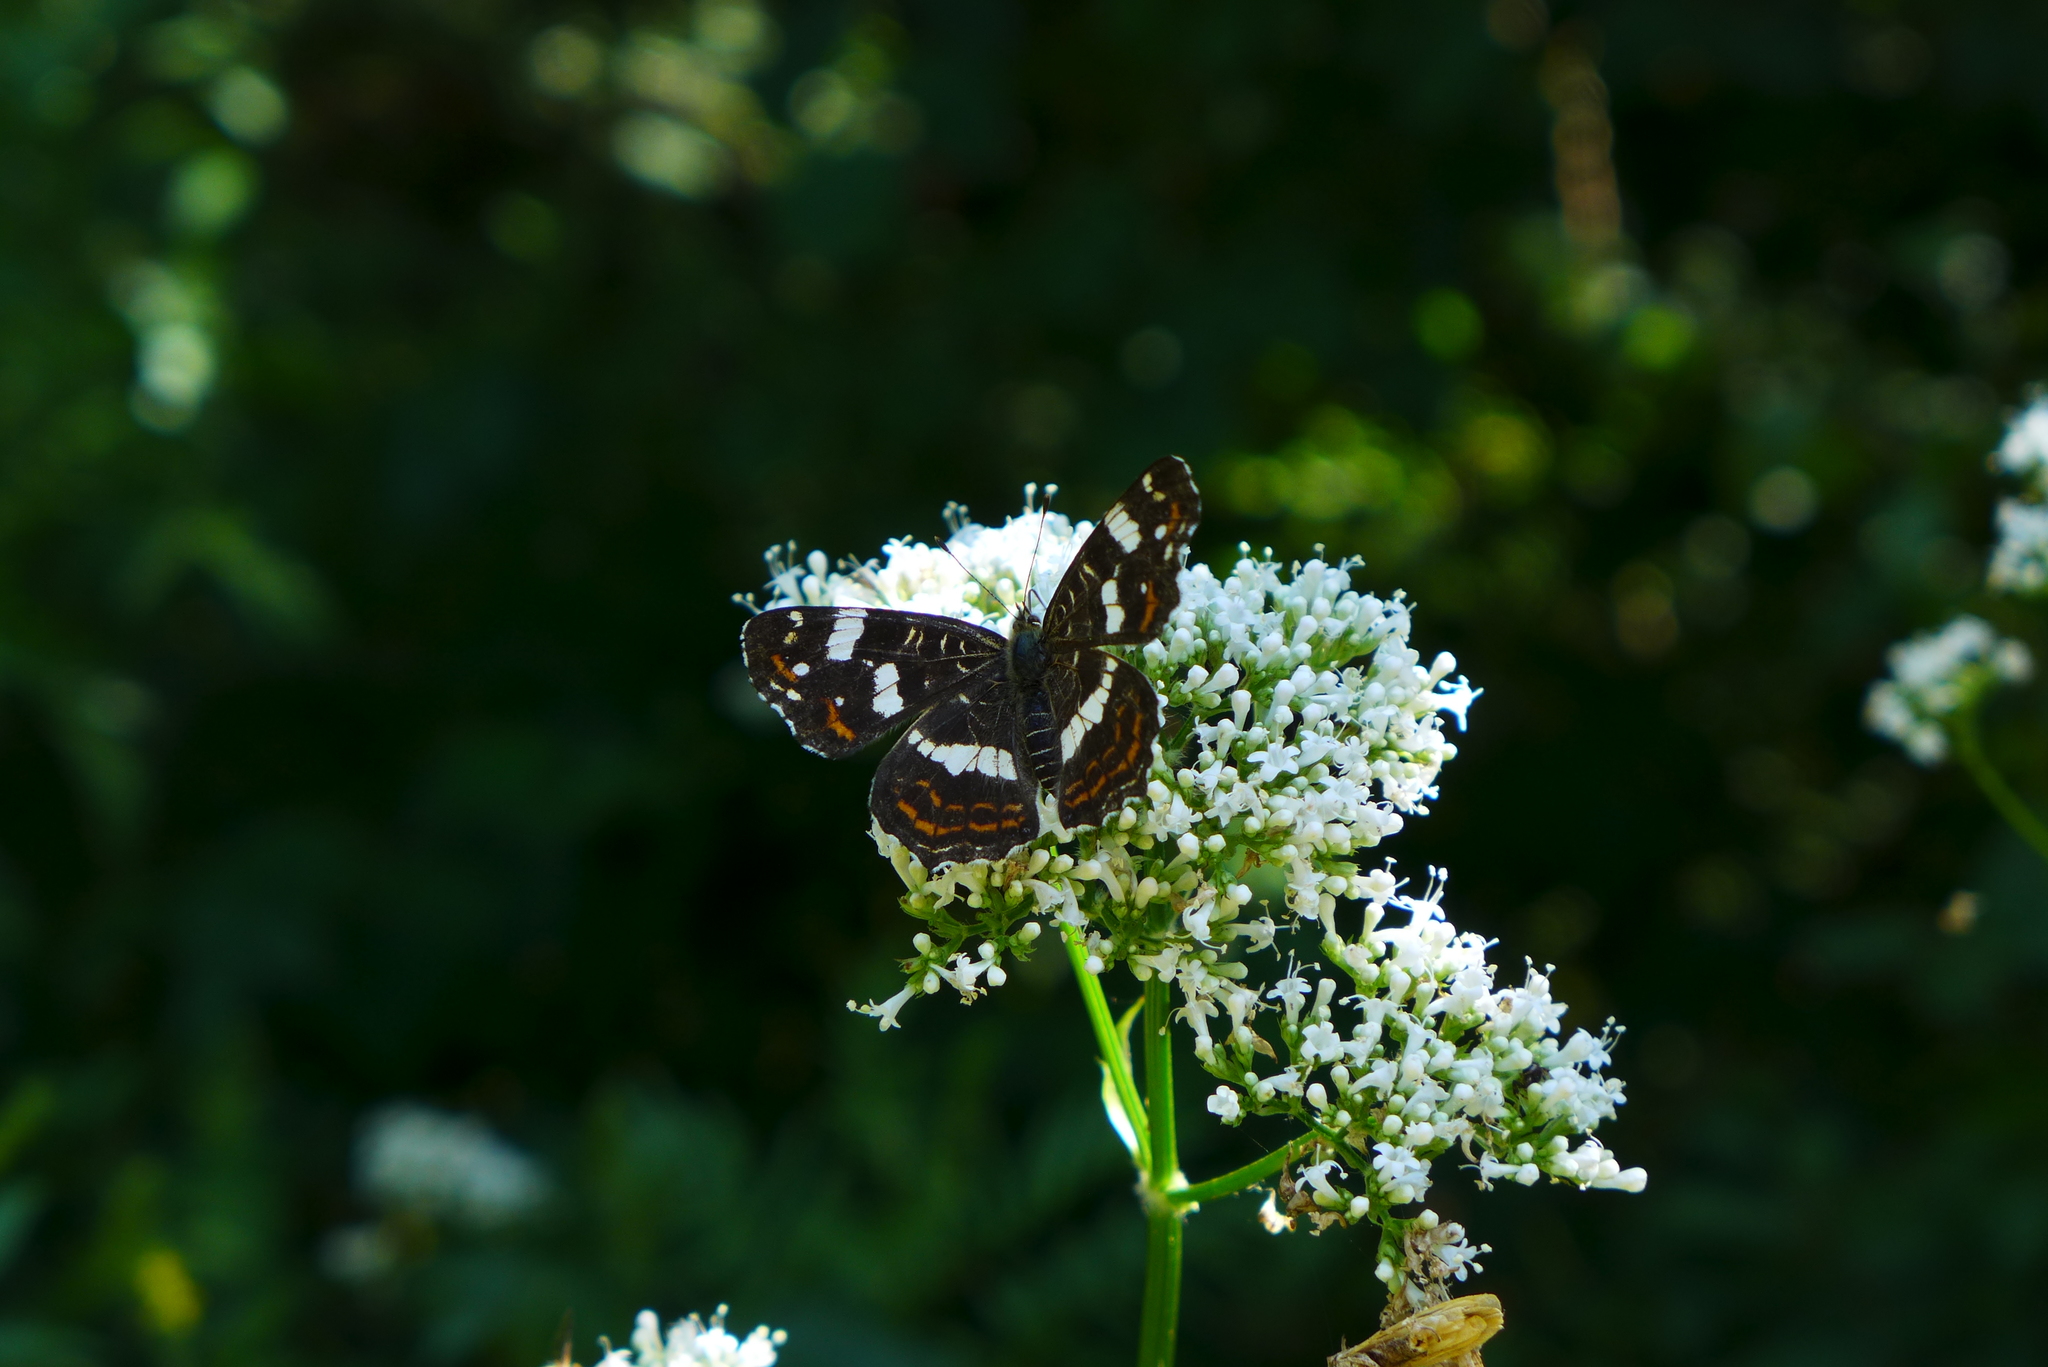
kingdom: Animalia
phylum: Arthropoda
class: Insecta
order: Lepidoptera
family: Nymphalidae
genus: Araschnia
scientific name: Araschnia levana
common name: Map butterfly
